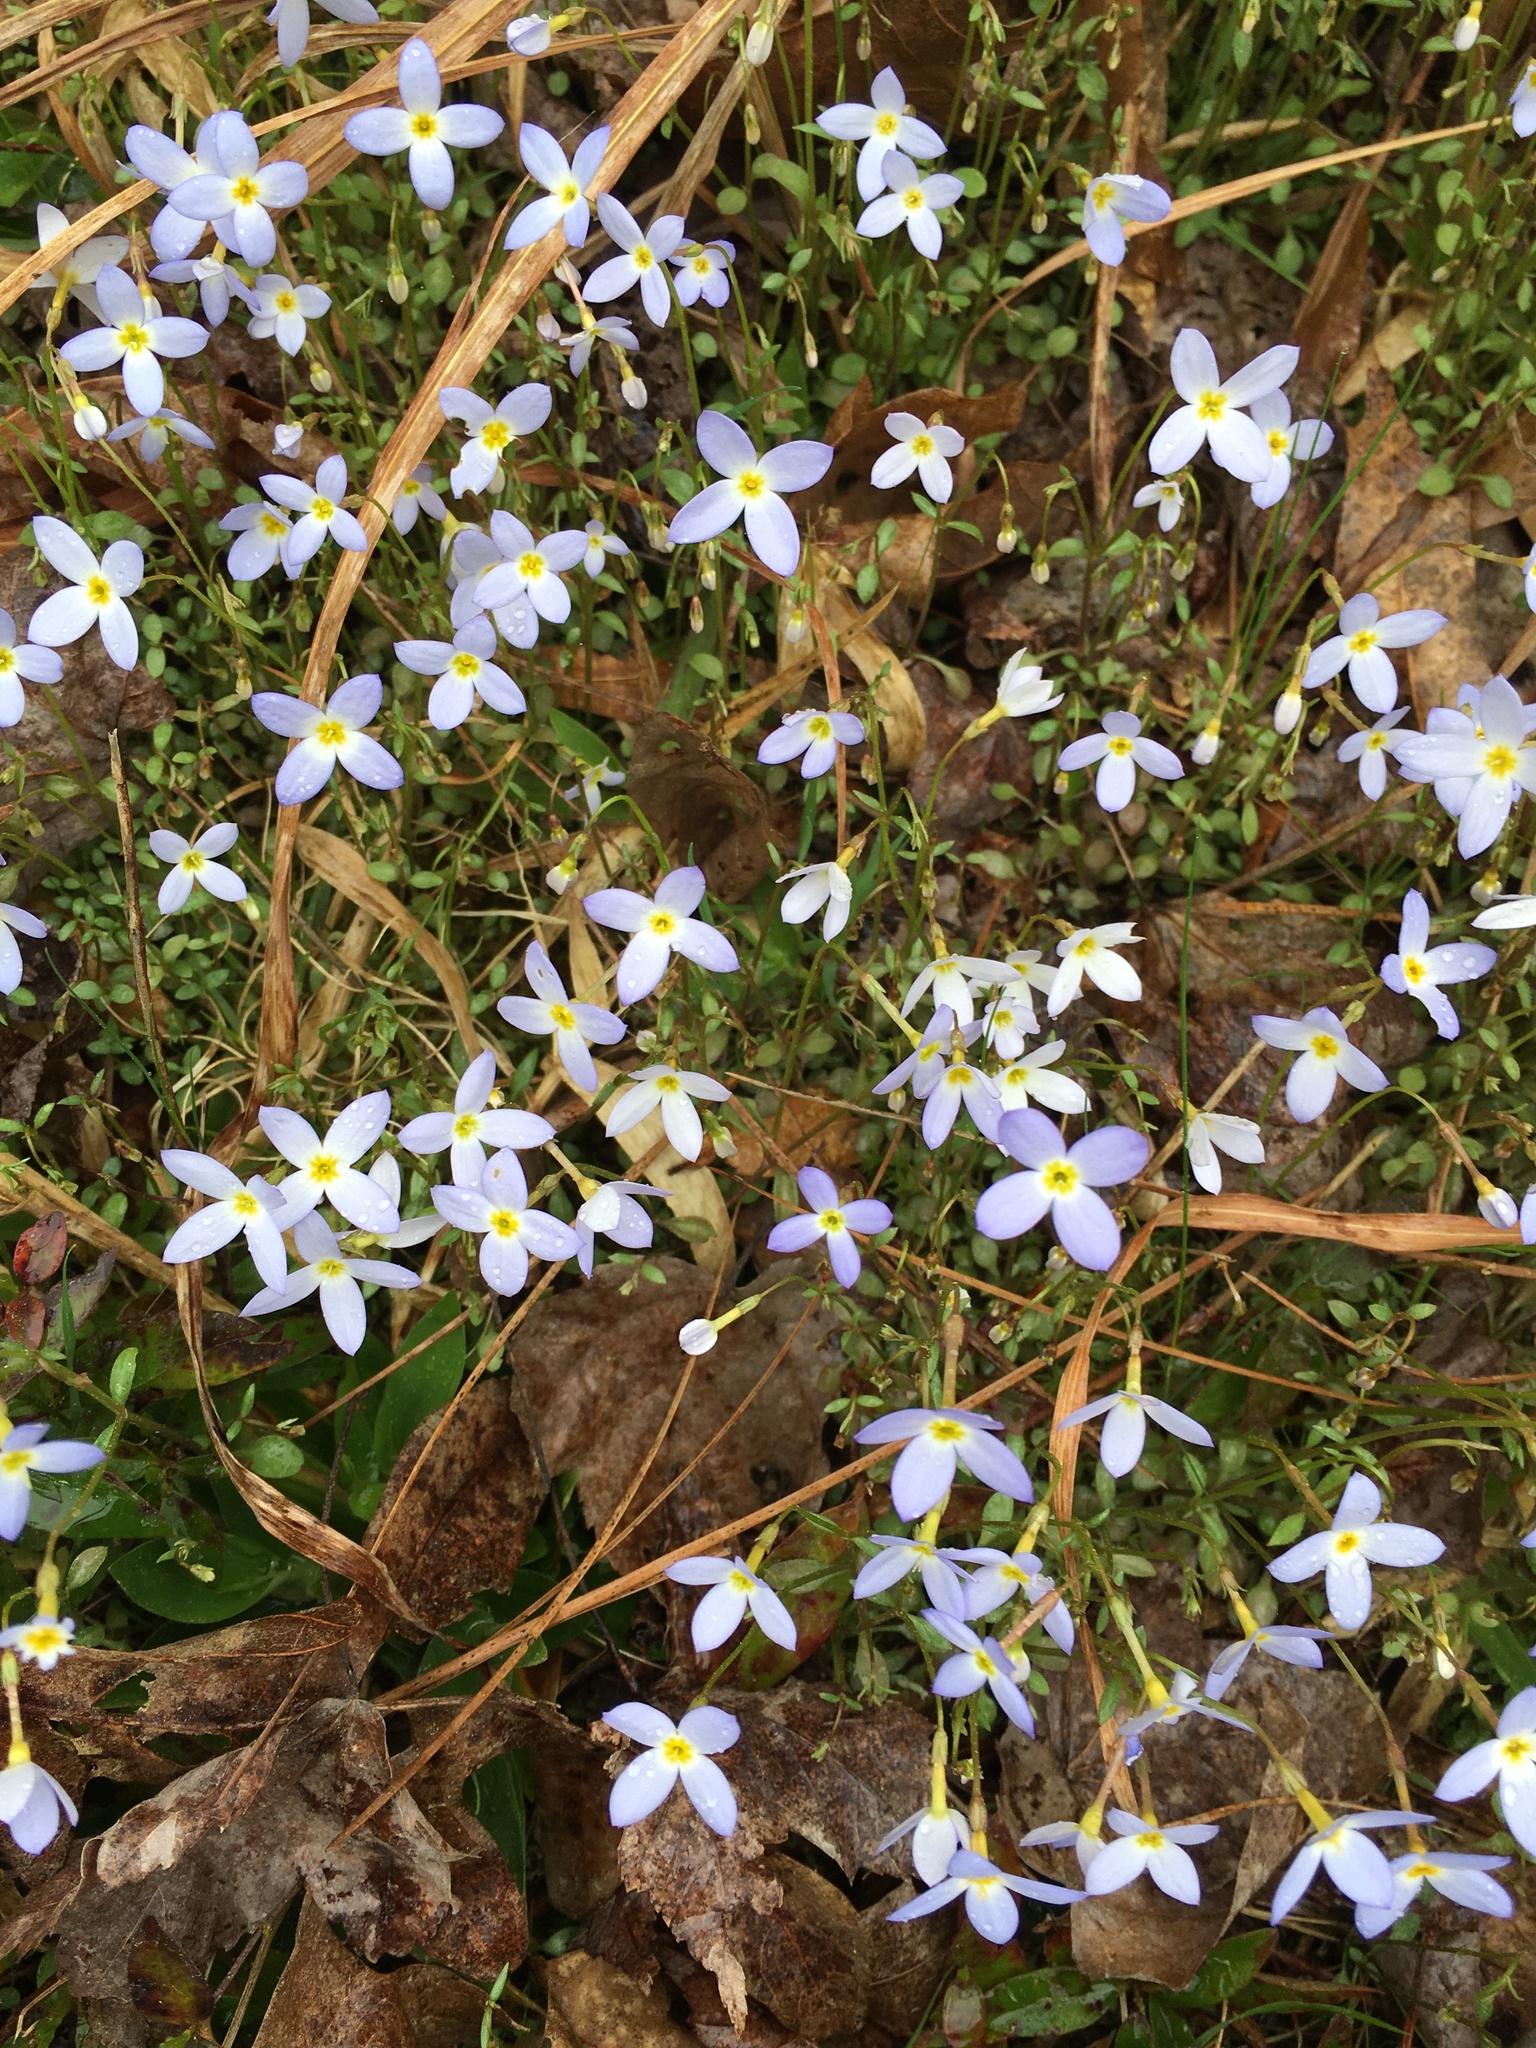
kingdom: Plantae
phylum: Tracheophyta
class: Magnoliopsida
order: Gentianales
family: Rubiaceae
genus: Houstonia
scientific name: Houstonia caerulea
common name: Bluets
